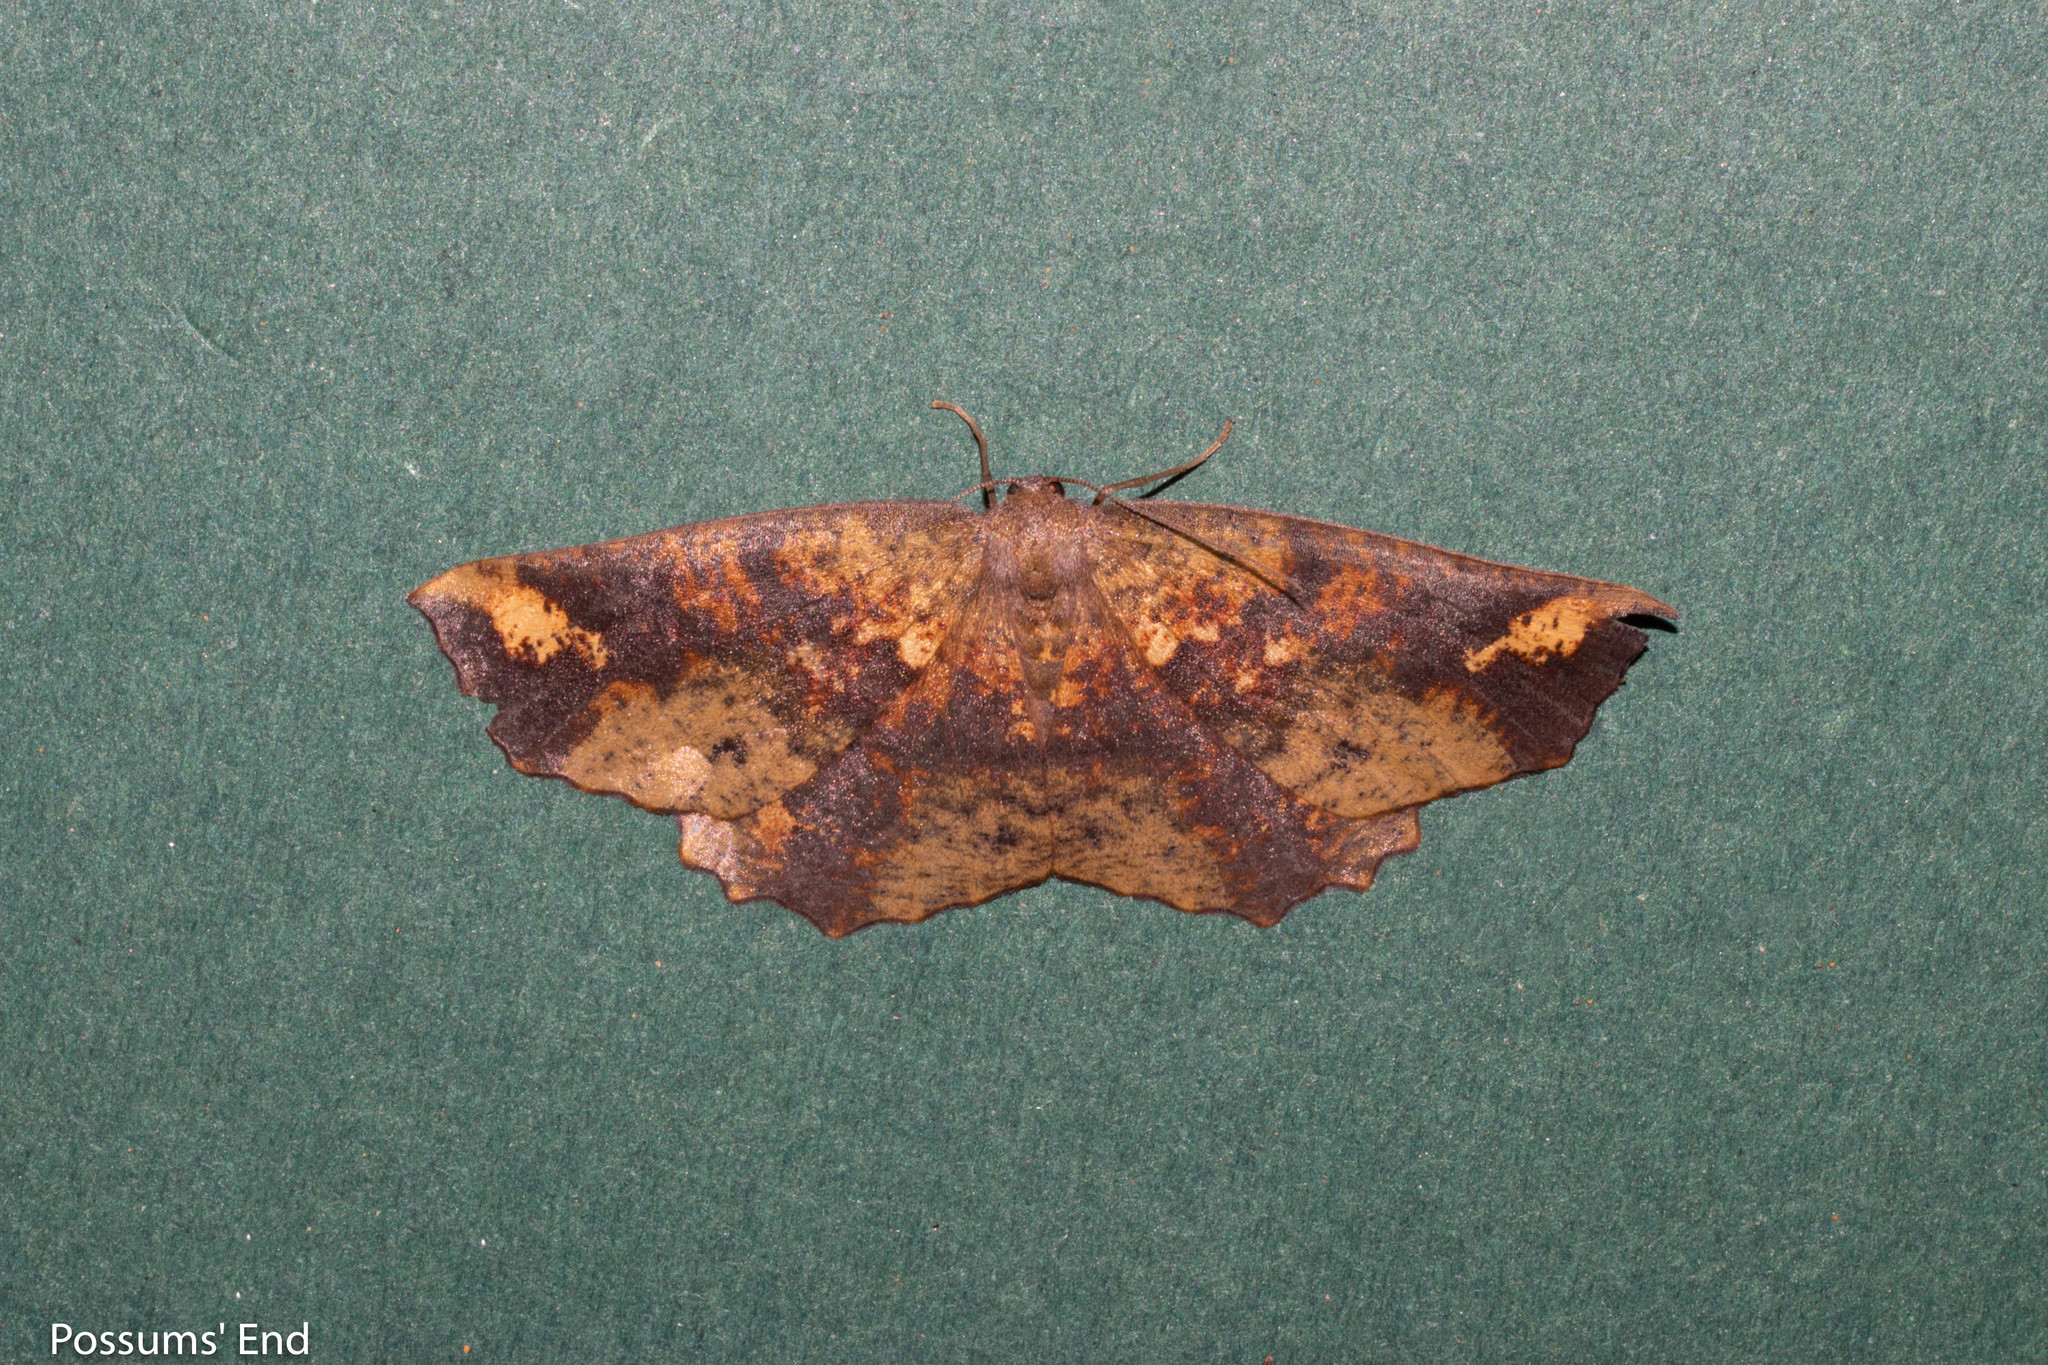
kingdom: Animalia
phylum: Arthropoda
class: Insecta
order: Lepidoptera
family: Geometridae
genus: Xyridacma
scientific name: Xyridacma ustaria
